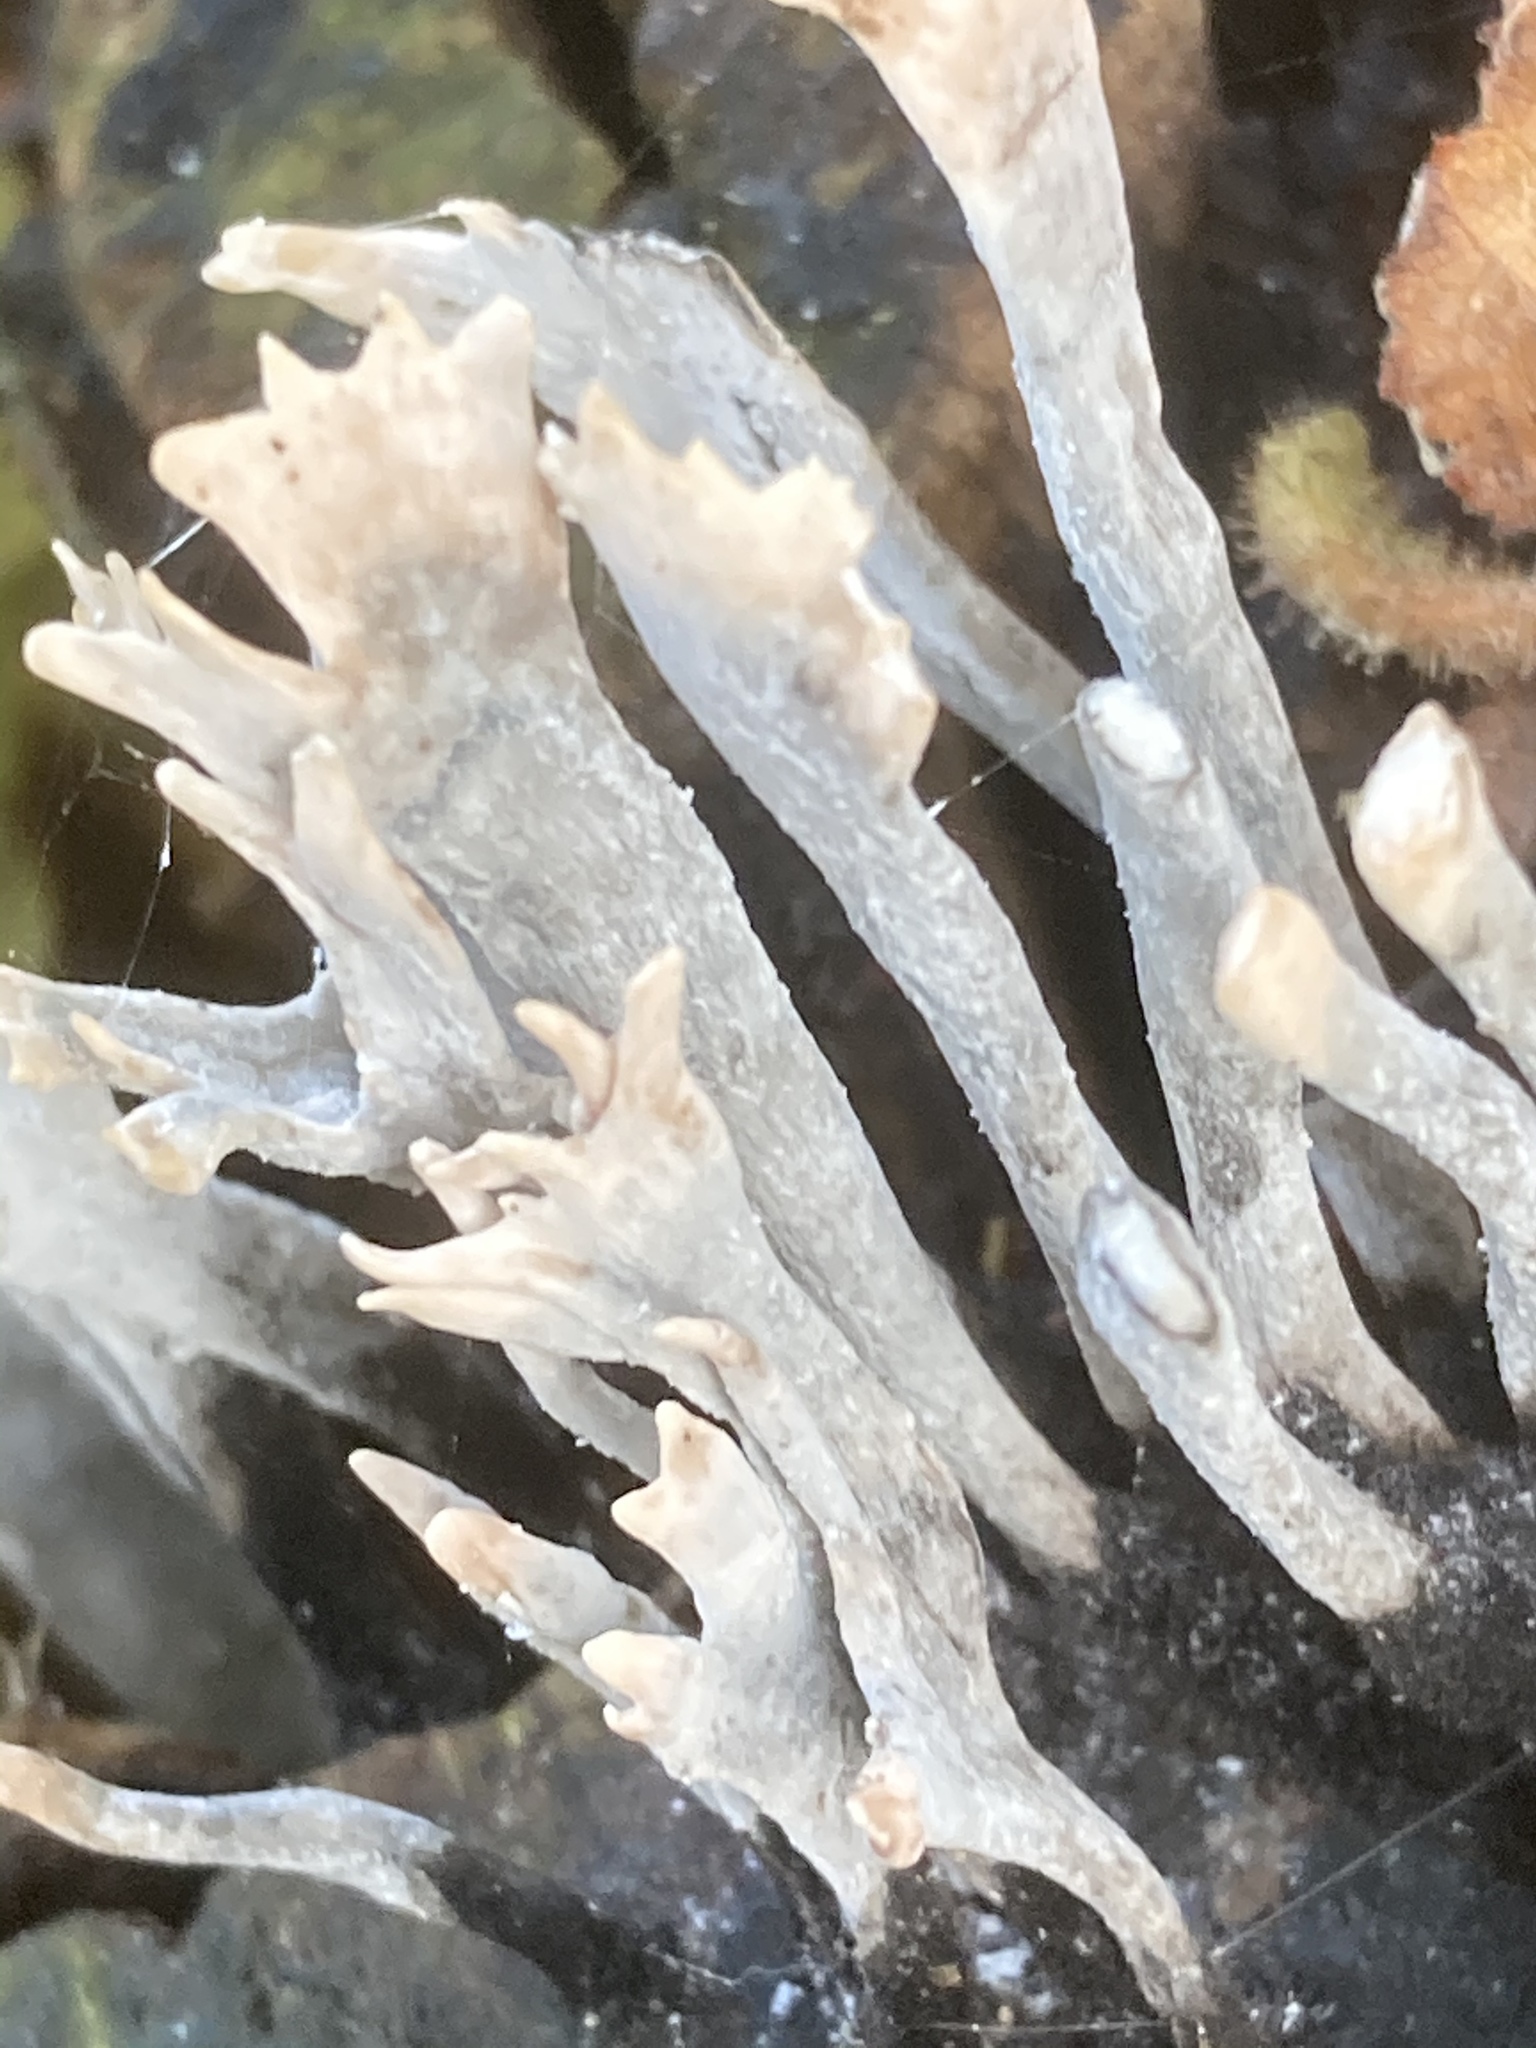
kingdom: Fungi
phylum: Ascomycota
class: Sordariomycetes
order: Xylariales
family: Xylariaceae
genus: Xylaria
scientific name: Xylaria hypoxylon
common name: Candle-snuff fungus
